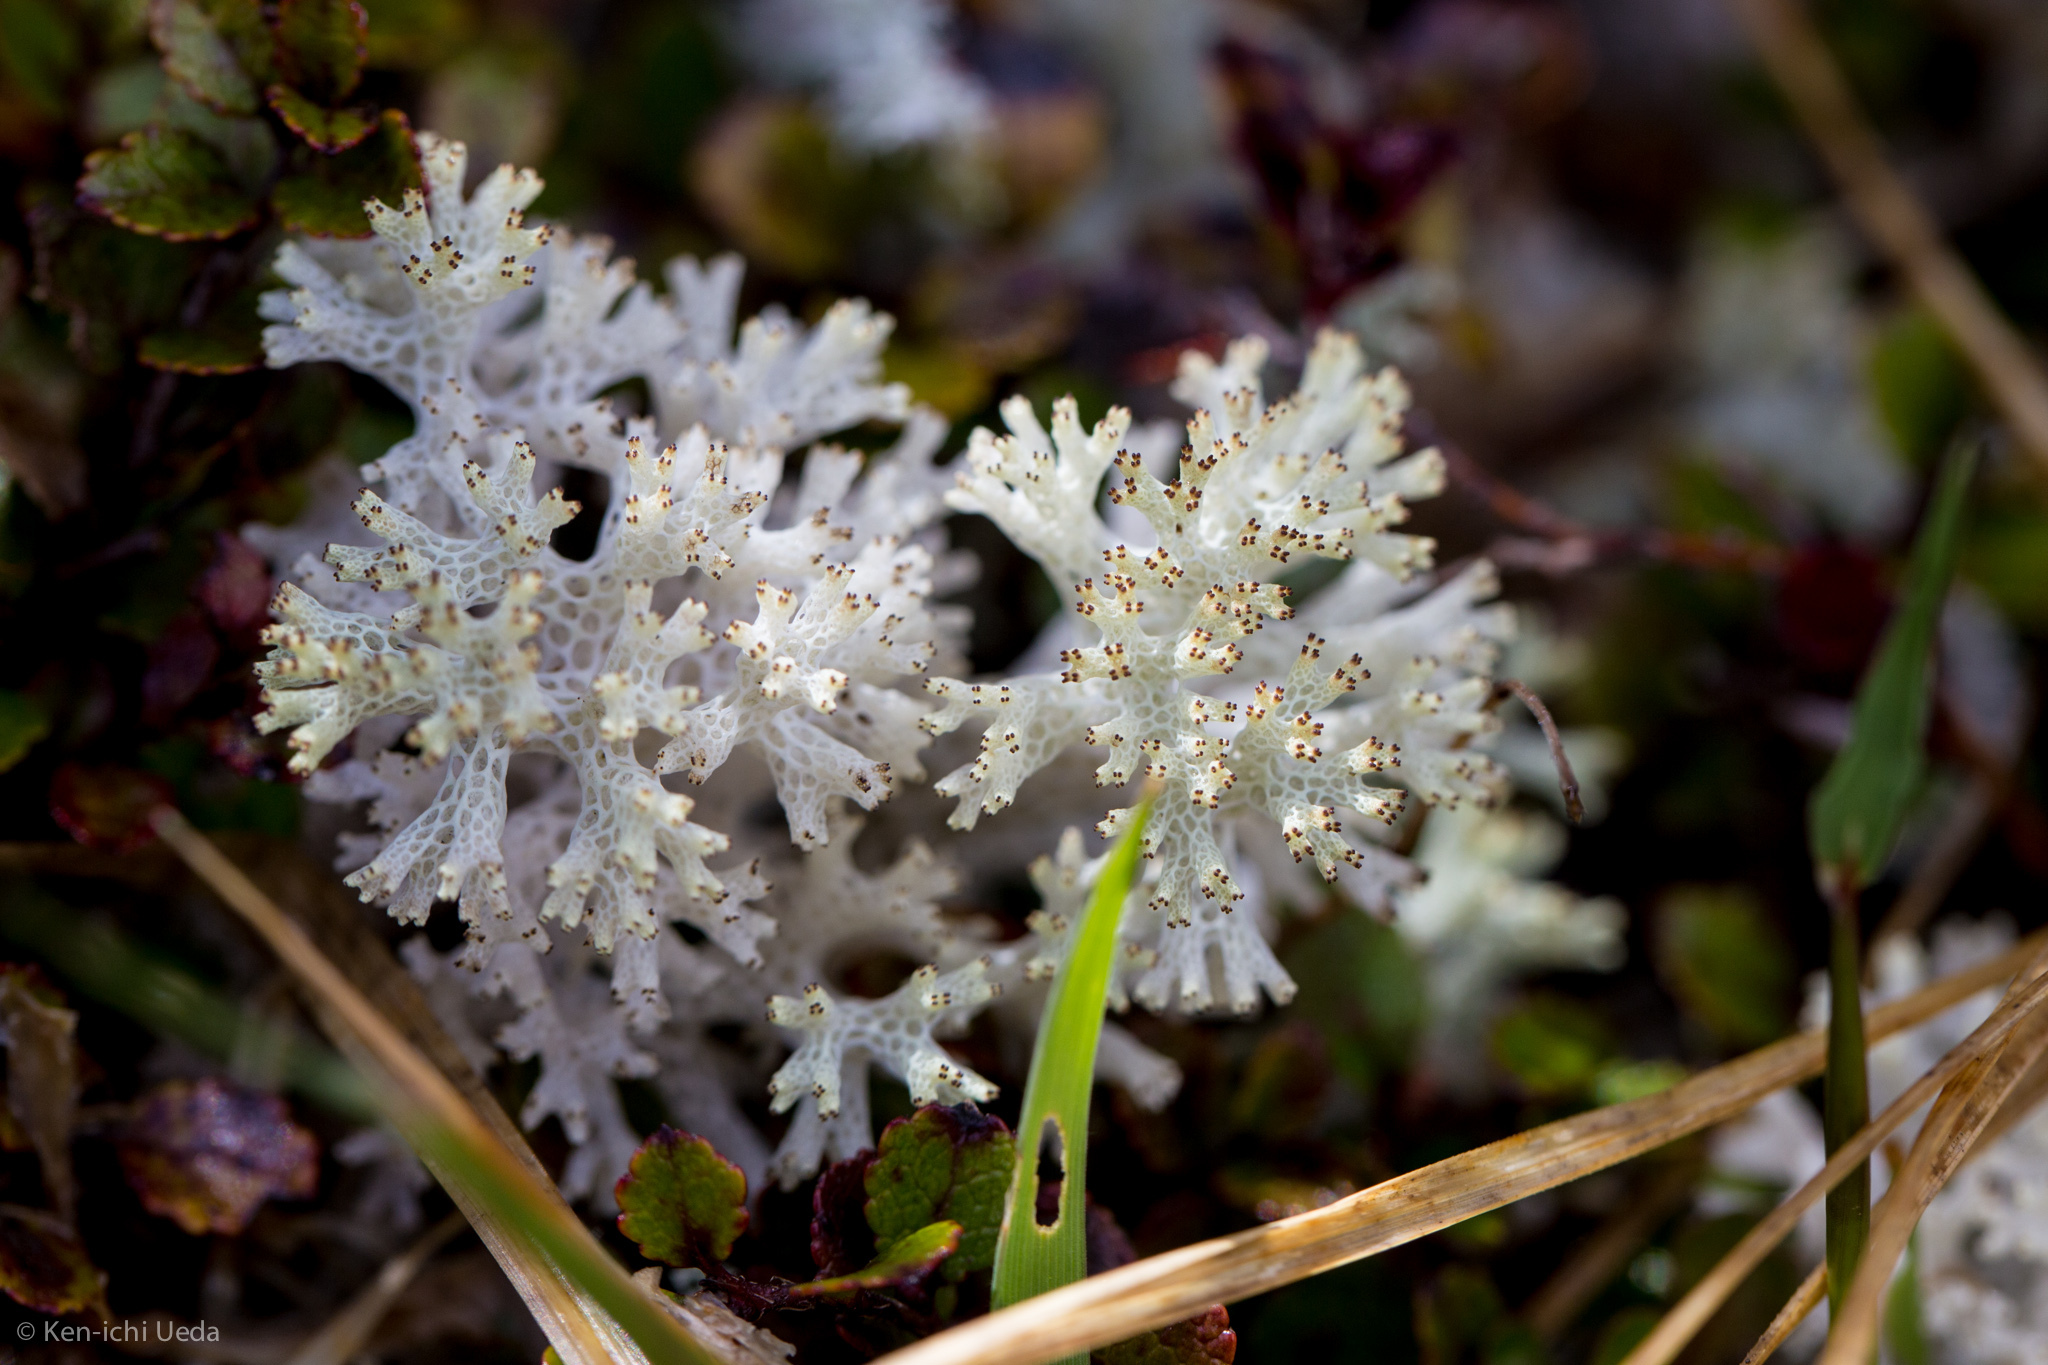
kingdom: Fungi
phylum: Ascomycota
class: Lecanoromycetes
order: Lecanorales
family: Cladoniaceae
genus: Pulchrocladia
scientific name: Pulchrocladia retipora
